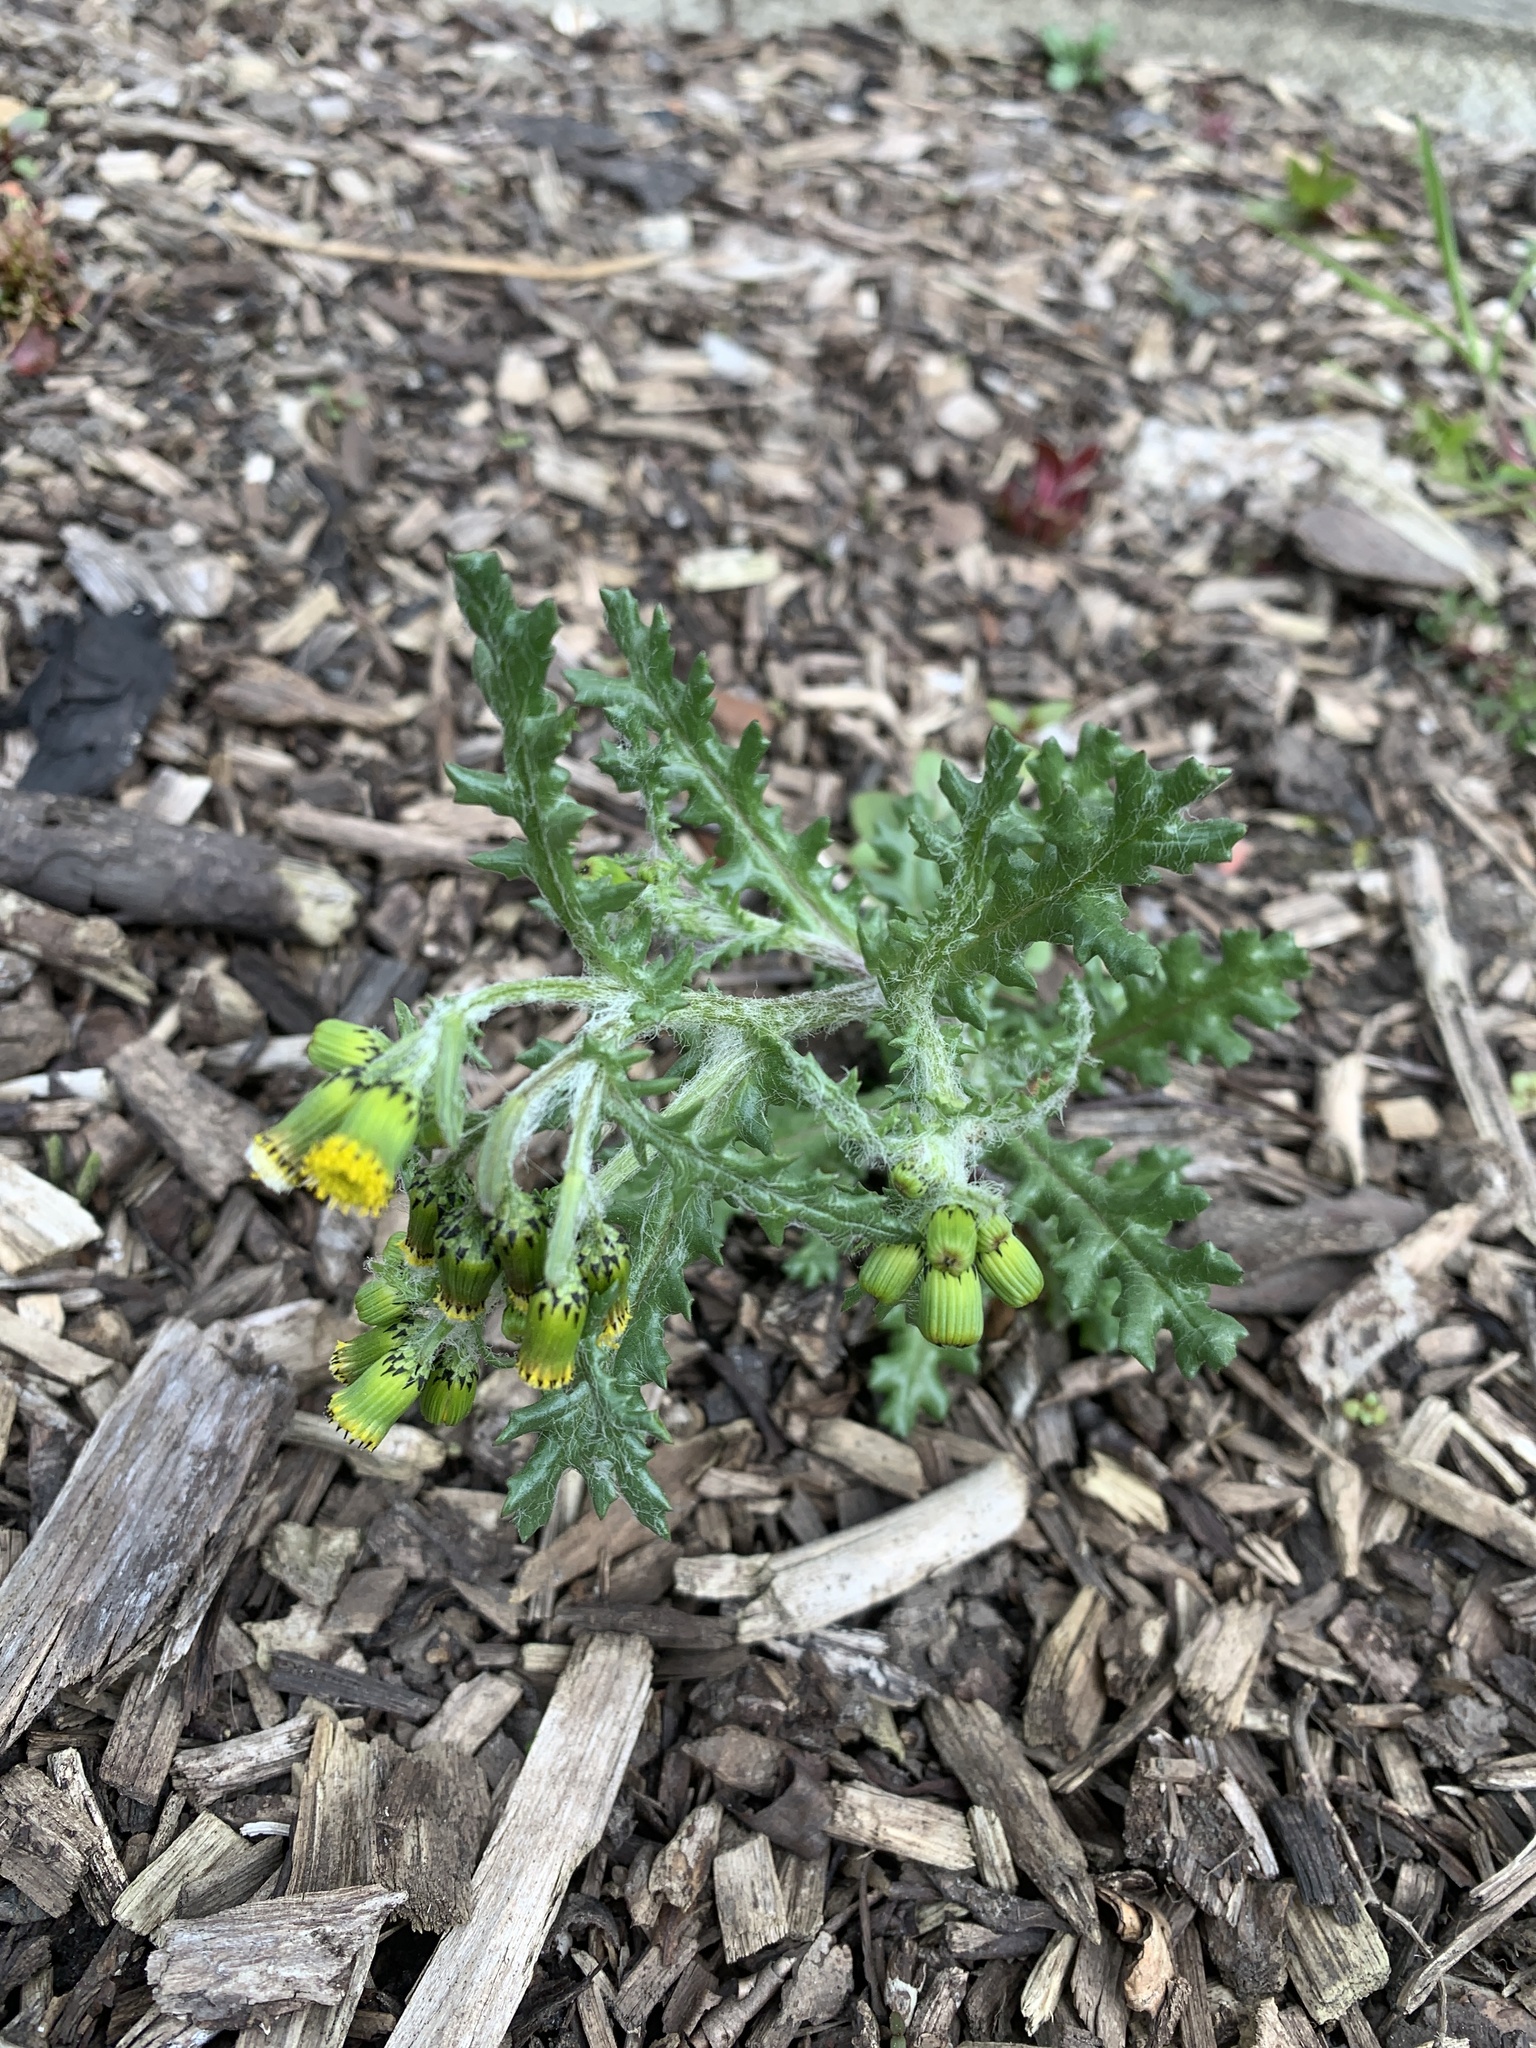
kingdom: Plantae
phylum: Tracheophyta
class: Magnoliopsida
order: Asterales
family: Asteraceae
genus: Senecio
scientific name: Senecio vulgaris
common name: Old-man-in-the-spring
